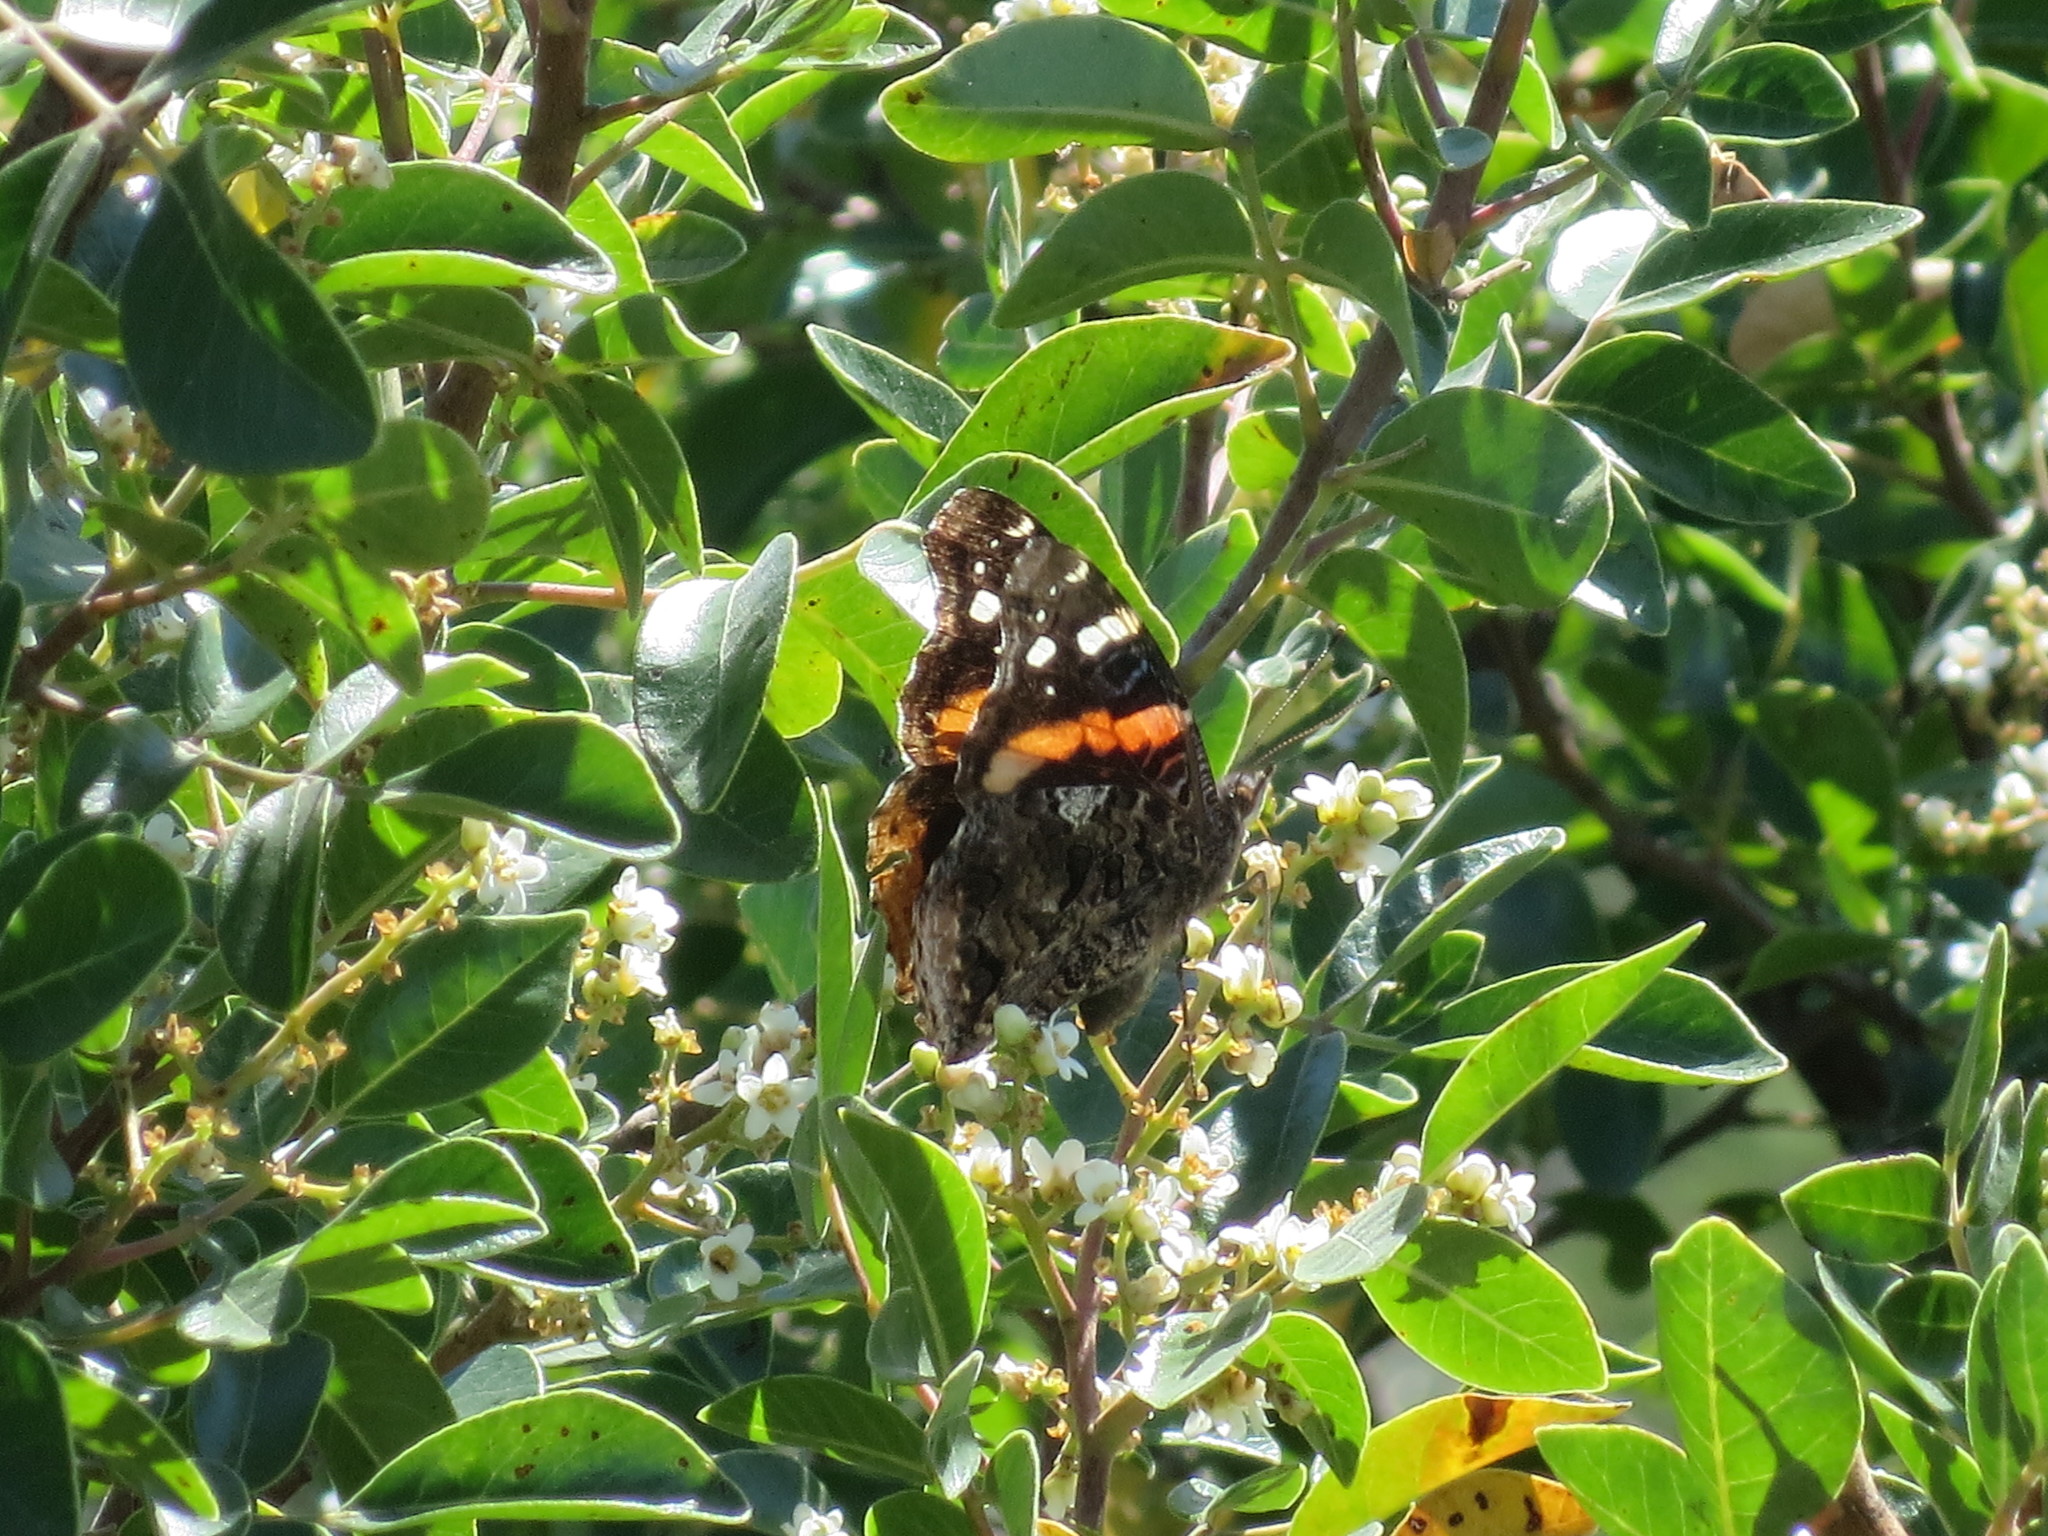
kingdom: Animalia
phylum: Arthropoda
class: Insecta
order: Lepidoptera
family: Nymphalidae
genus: Vanessa
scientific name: Vanessa atalanta
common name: Red admiral
